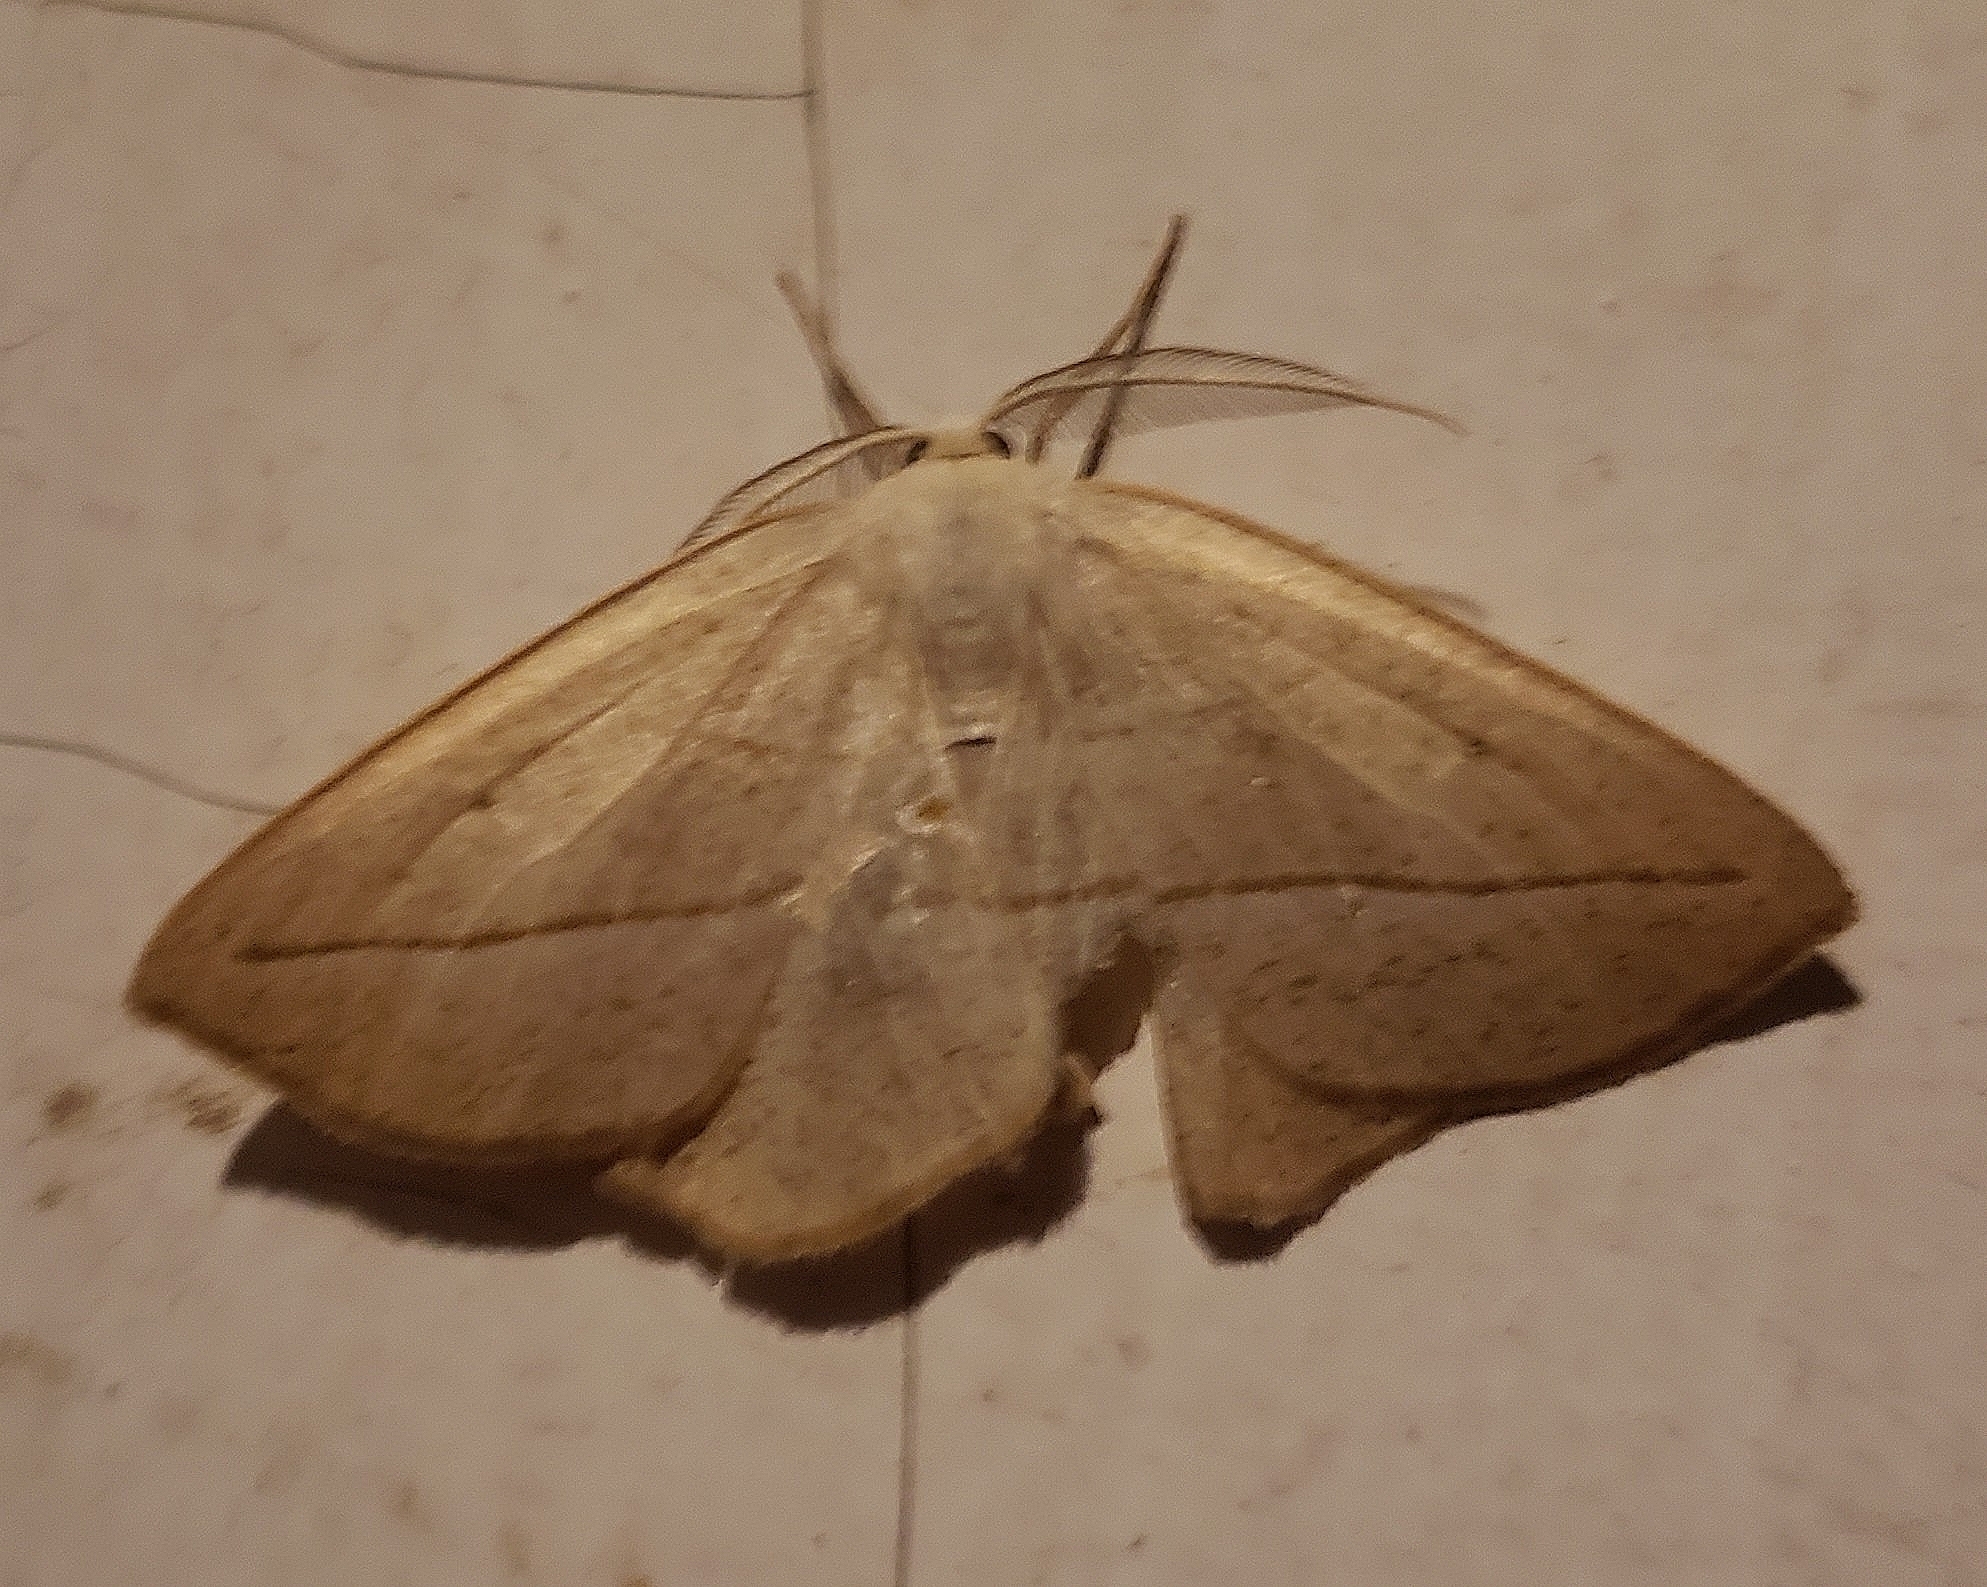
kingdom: Animalia
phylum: Arthropoda
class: Insecta
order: Lepidoptera
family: Geometridae
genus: Eusarca
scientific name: Eusarca confusaria
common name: Confused eusarca
